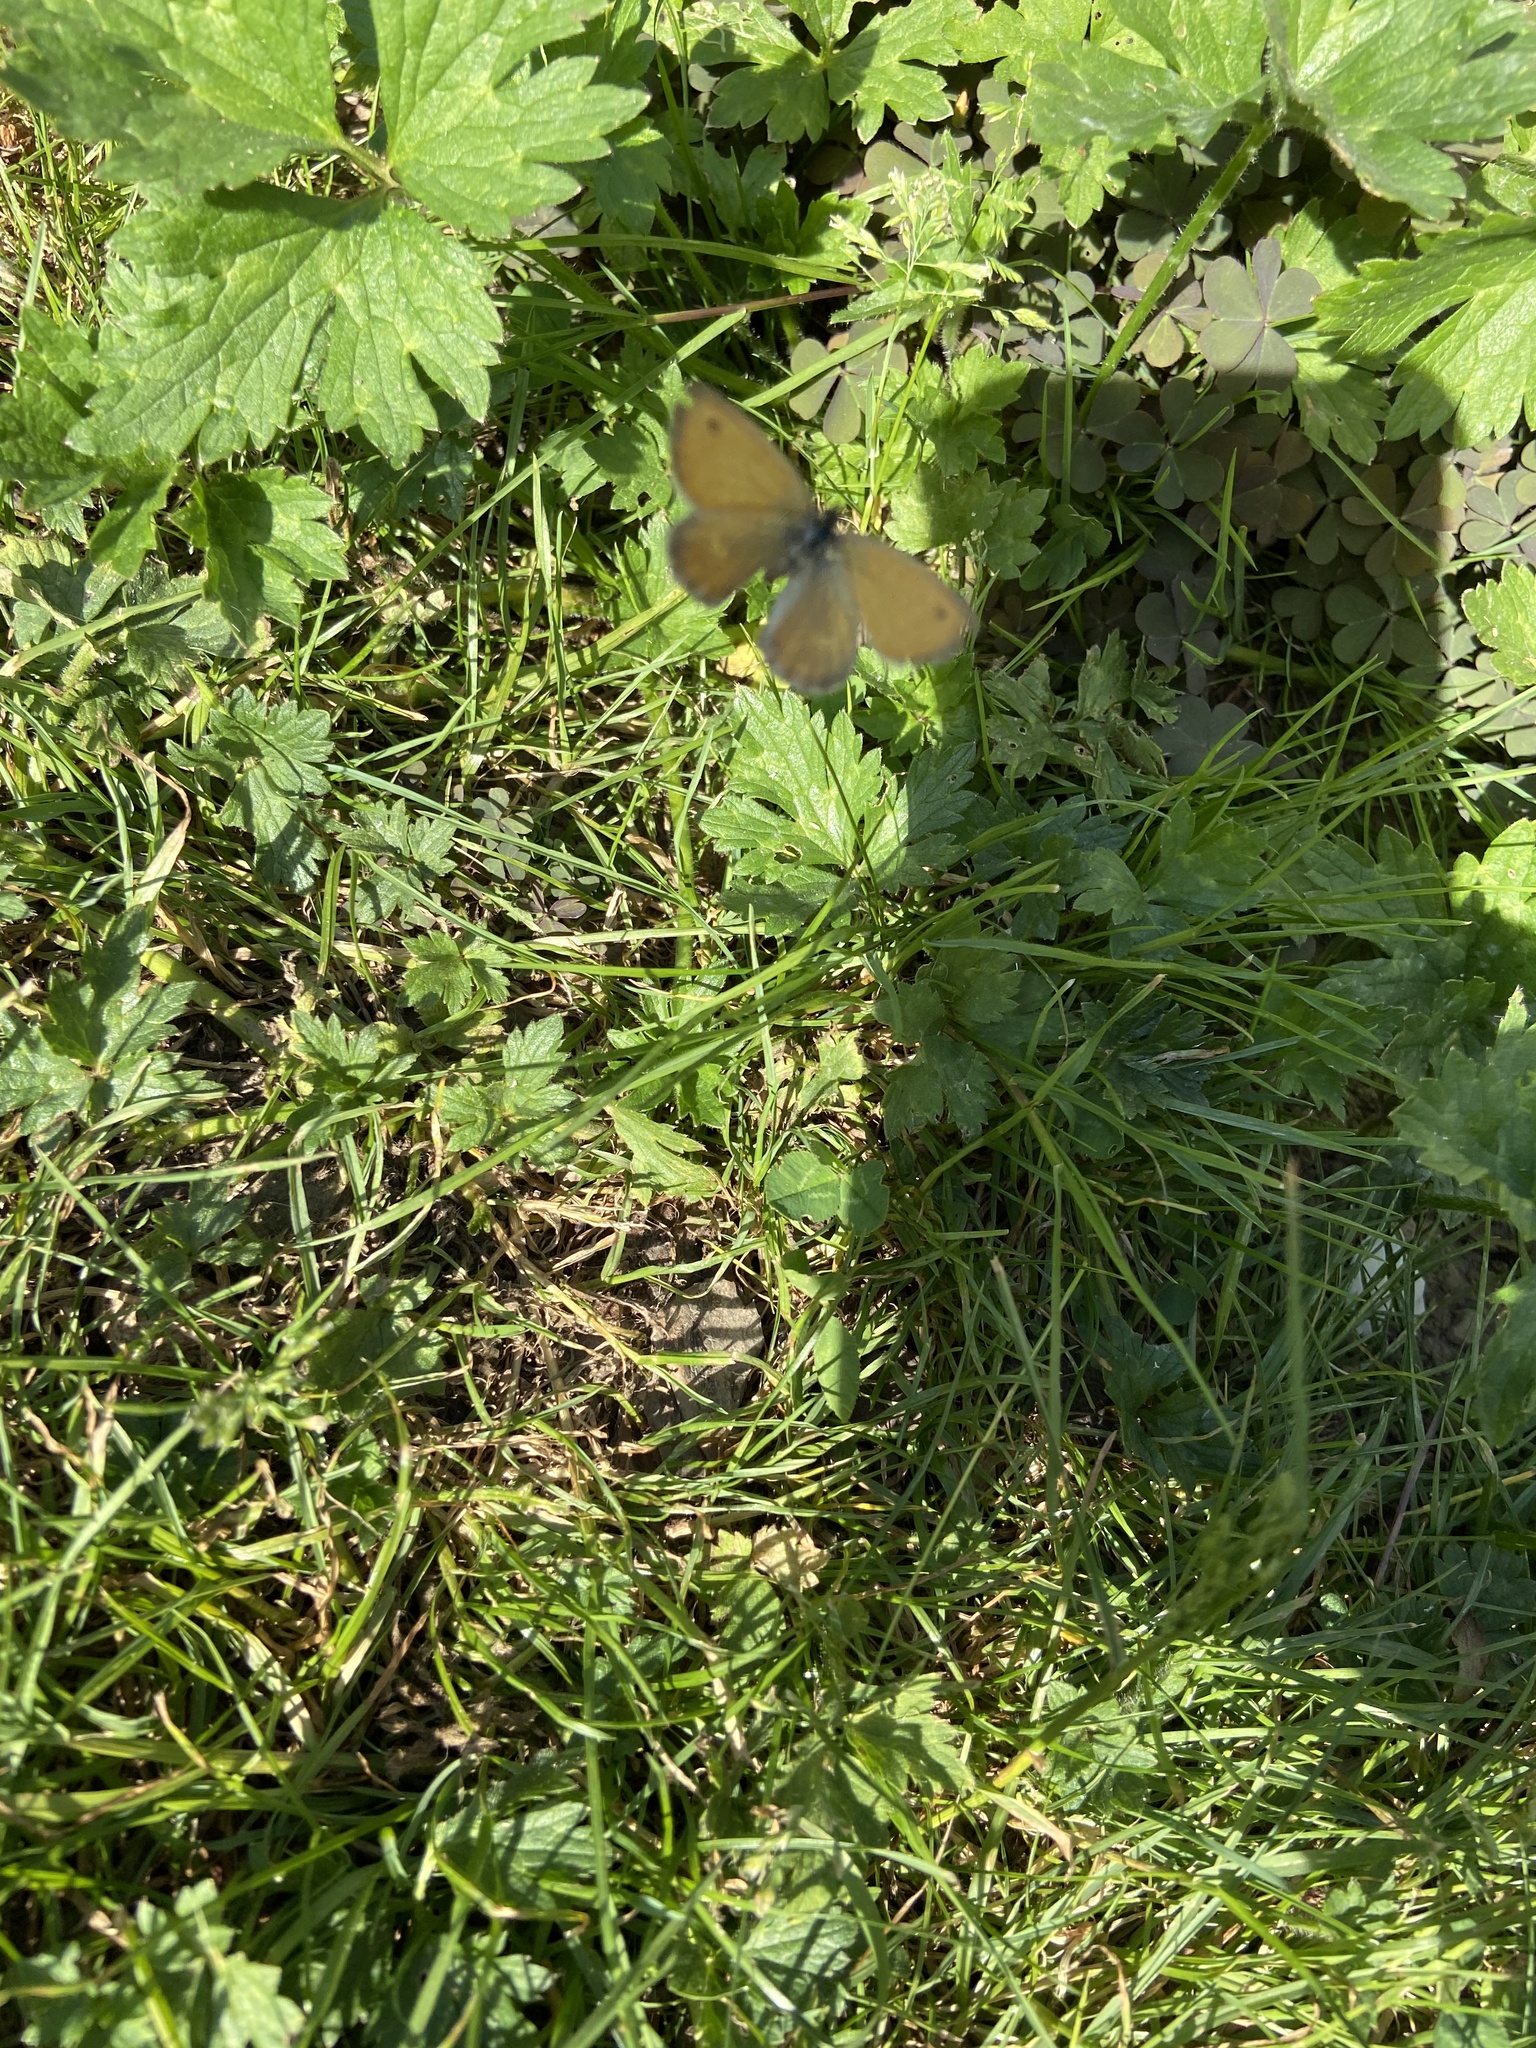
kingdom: Animalia
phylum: Arthropoda
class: Insecta
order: Lepidoptera
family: Nymphalidae
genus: Coenonympha
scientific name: Coenonympha pamphilus
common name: Small heath
